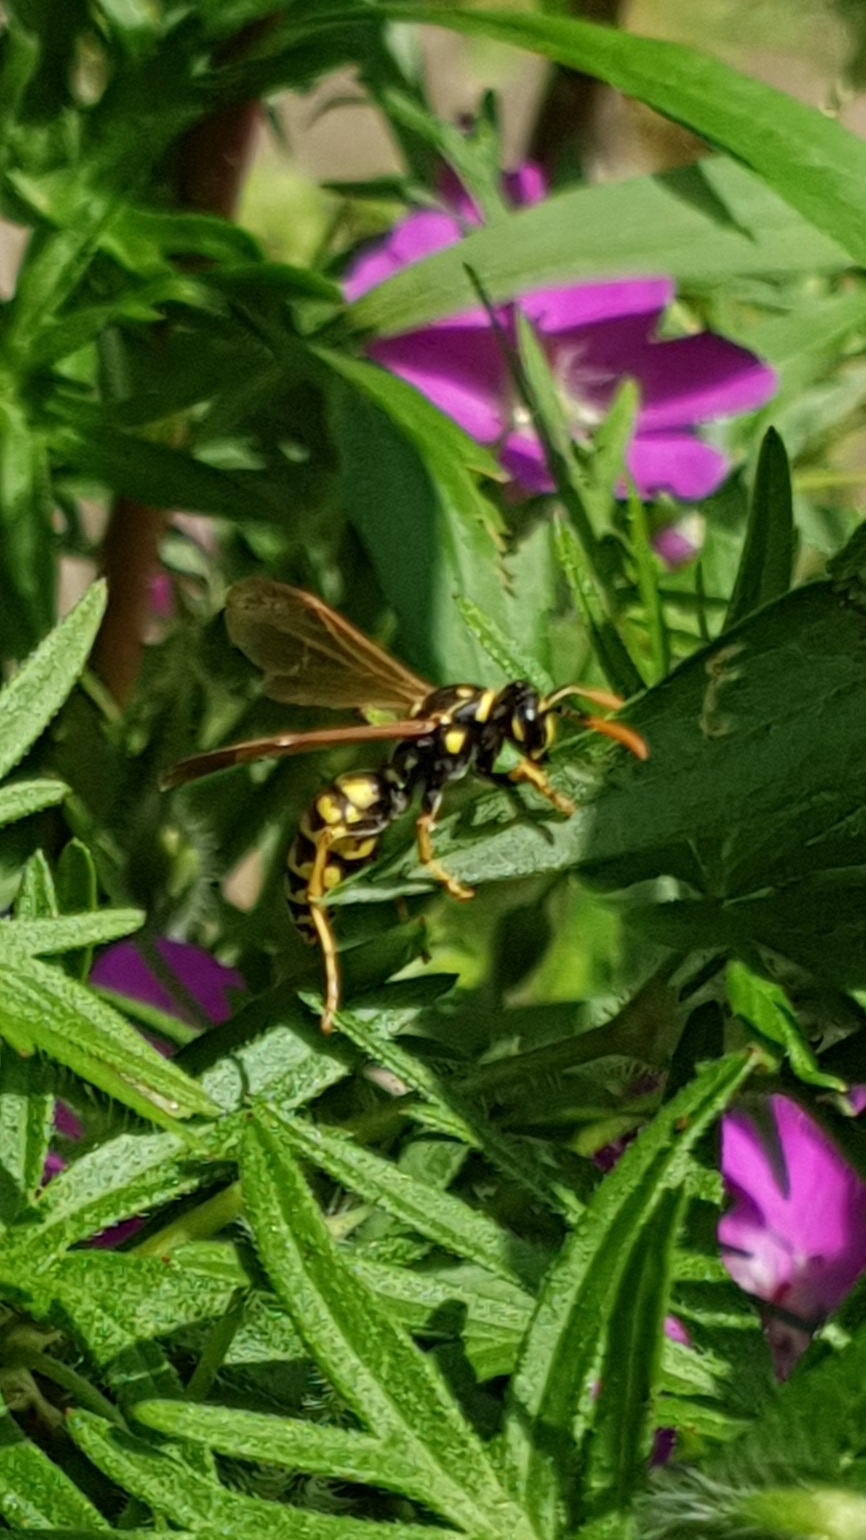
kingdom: Animalia
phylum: Arthropoda
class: Insecta
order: Hymenoptera
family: Eumenidae
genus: Polistes
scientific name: Polistes dominula
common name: Paper wasp
